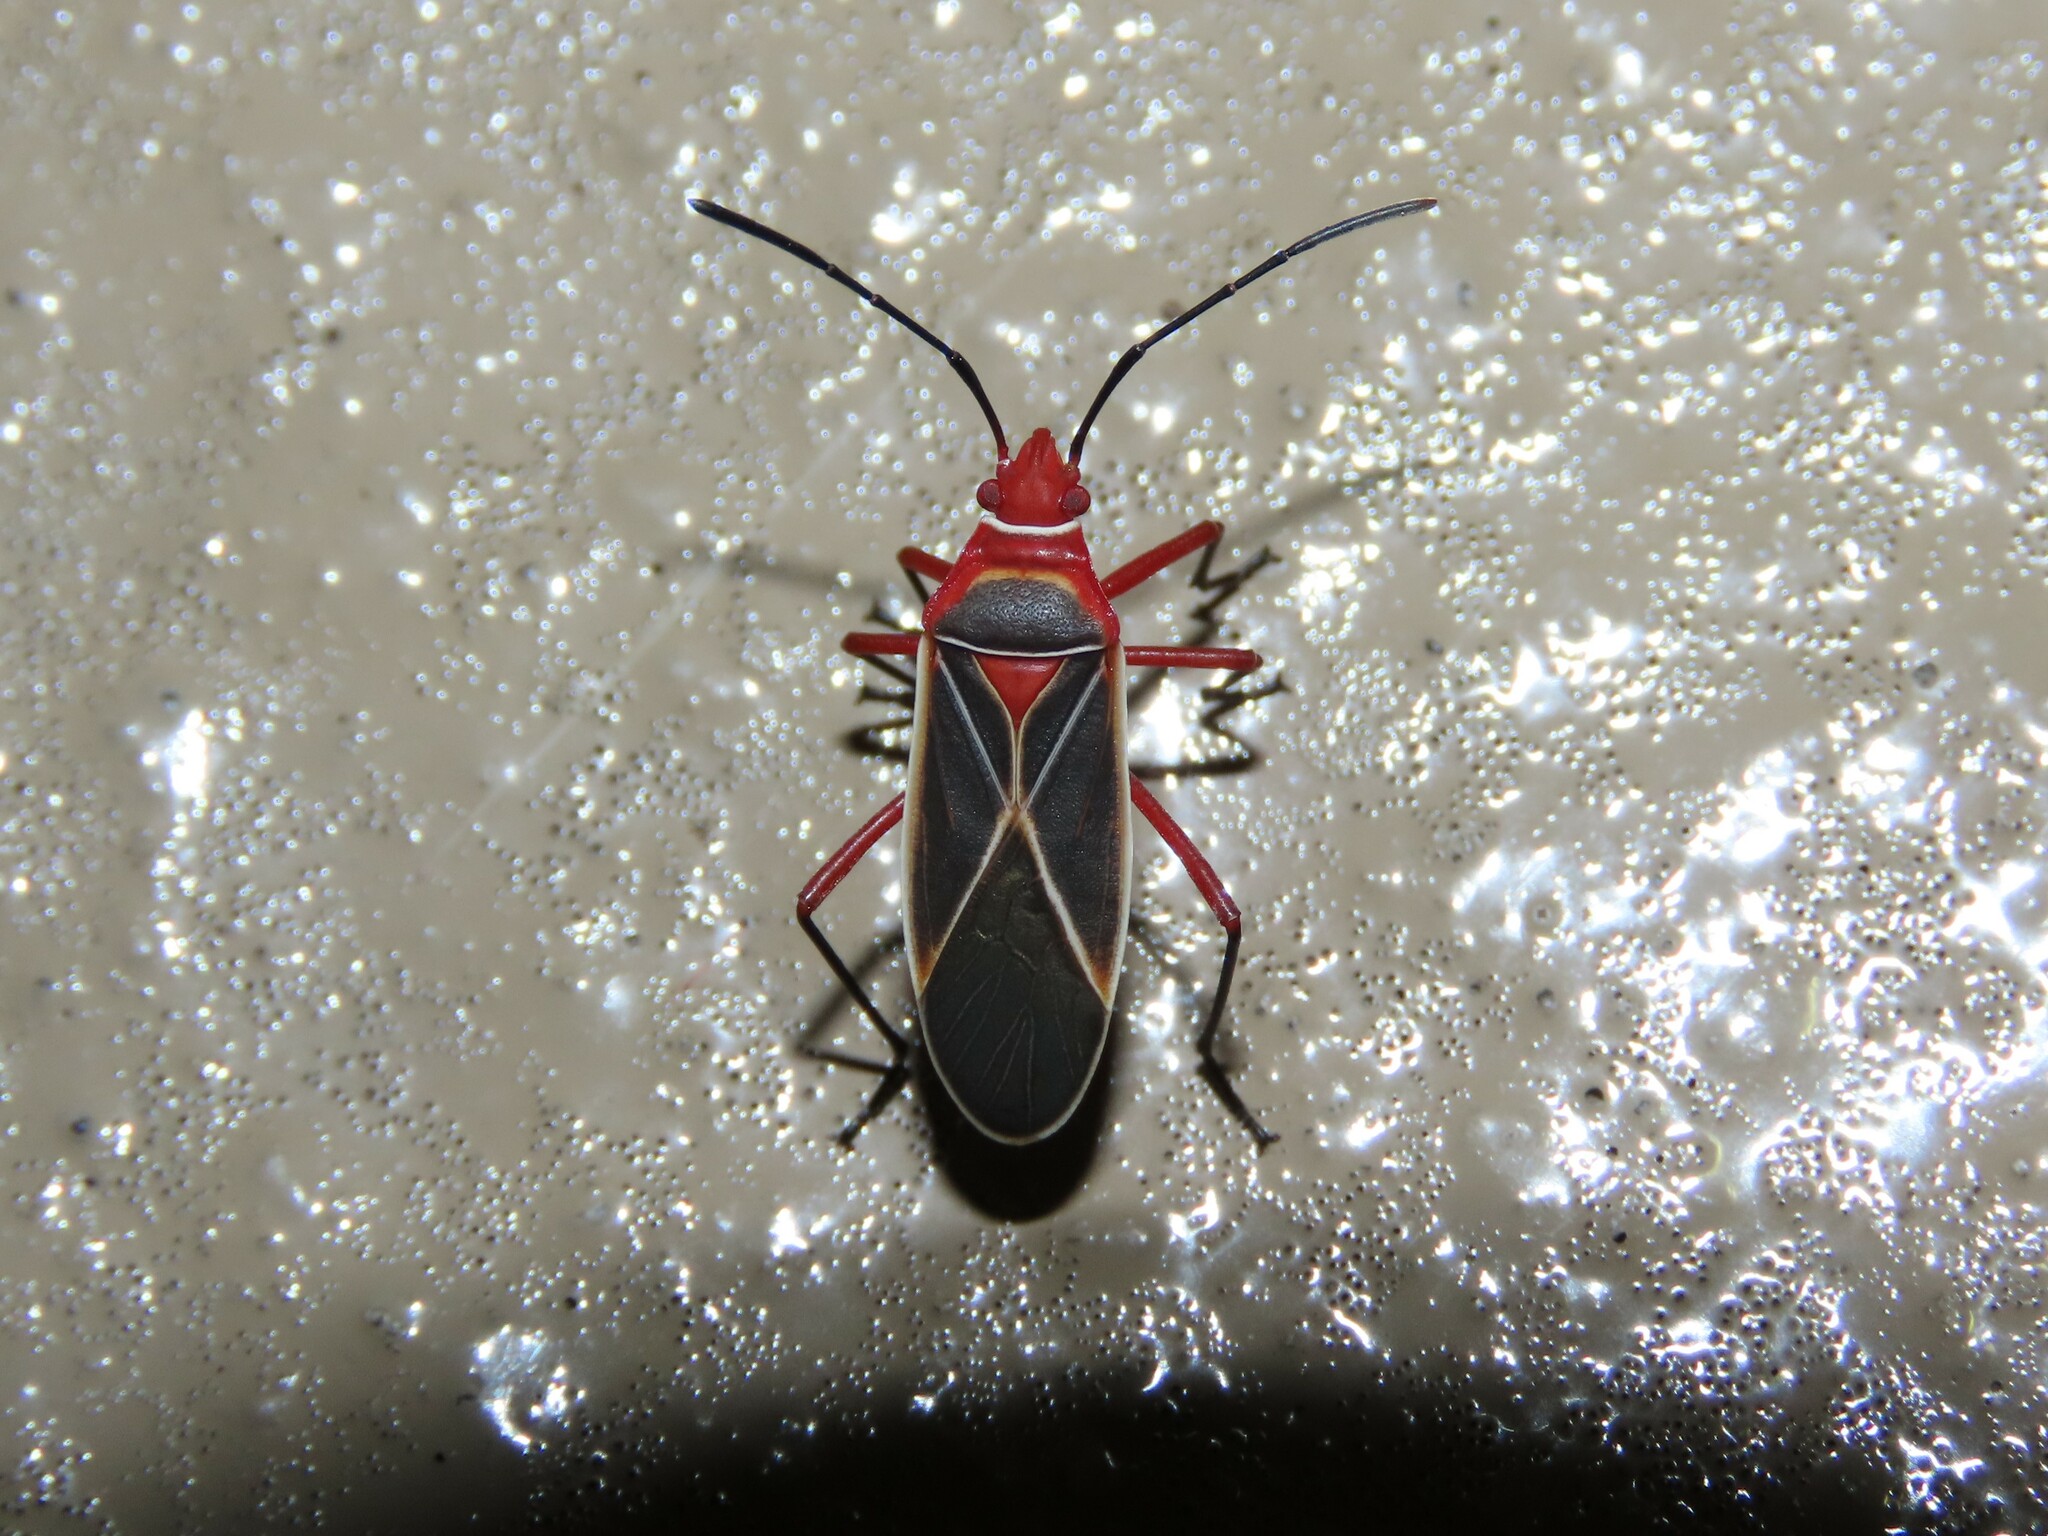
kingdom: Animalia
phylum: Arthropoda
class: Insecta
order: Hemiptera
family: Pyrrhocoridae
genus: Dysdercus
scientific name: Dysdercus suturellus
